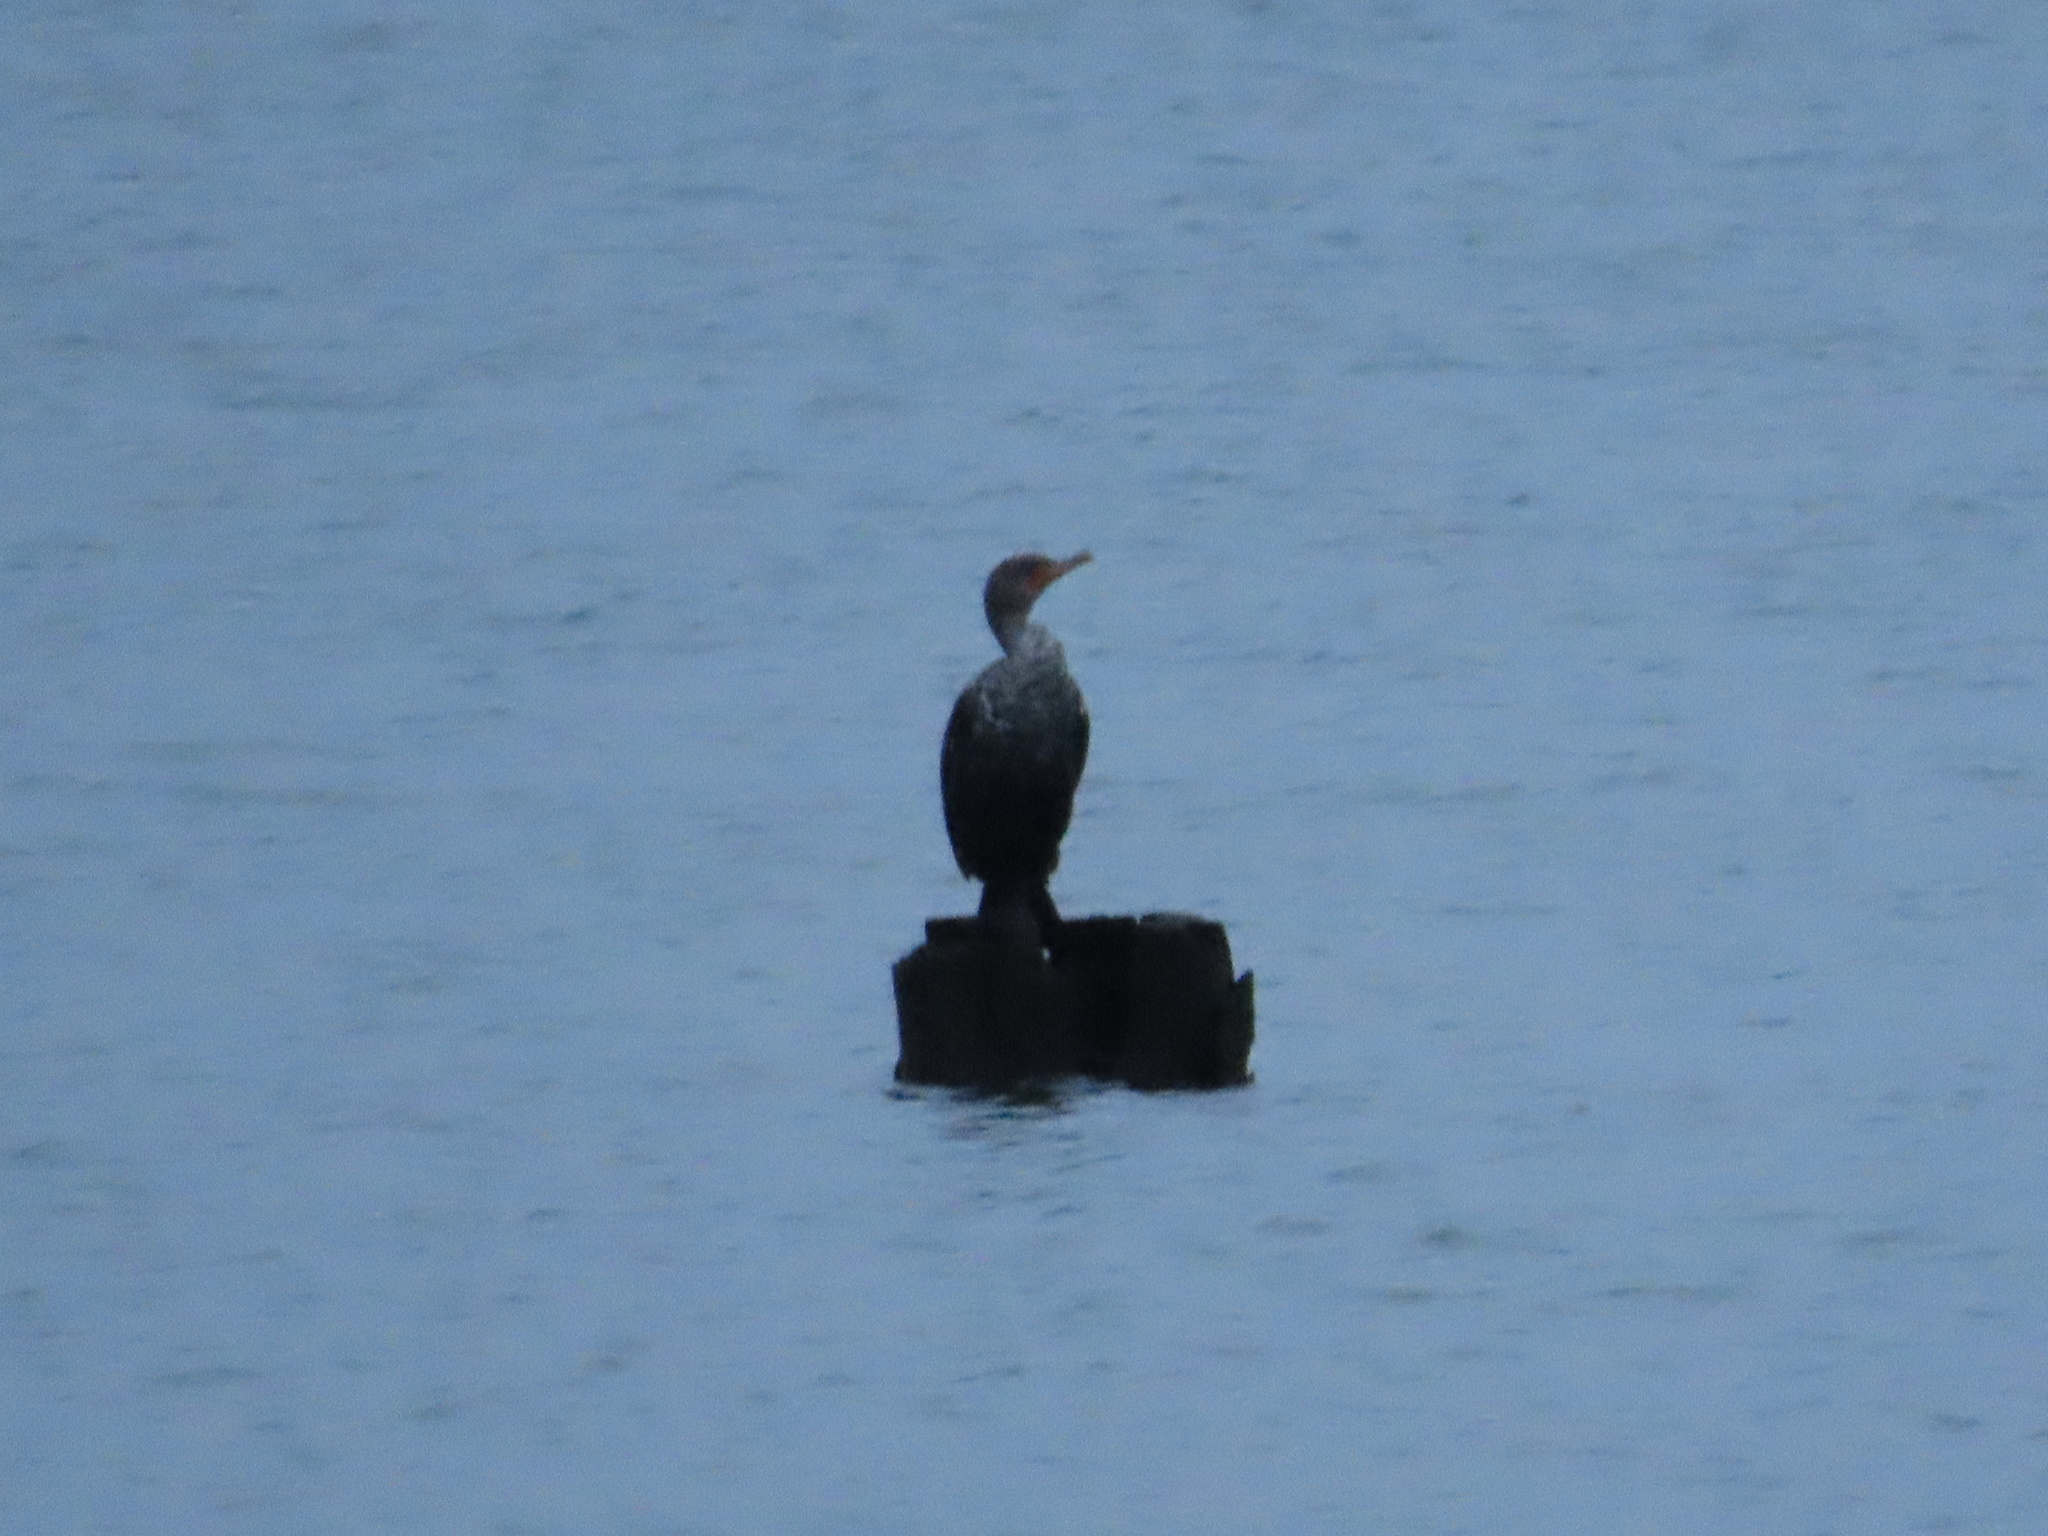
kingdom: Animalia
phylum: Chordata
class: Aves
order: Suliformes
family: Phalacrocoracidae
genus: Phalacrocorax
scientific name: Phalacrocorax auritus
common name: Double-crested cormorant
